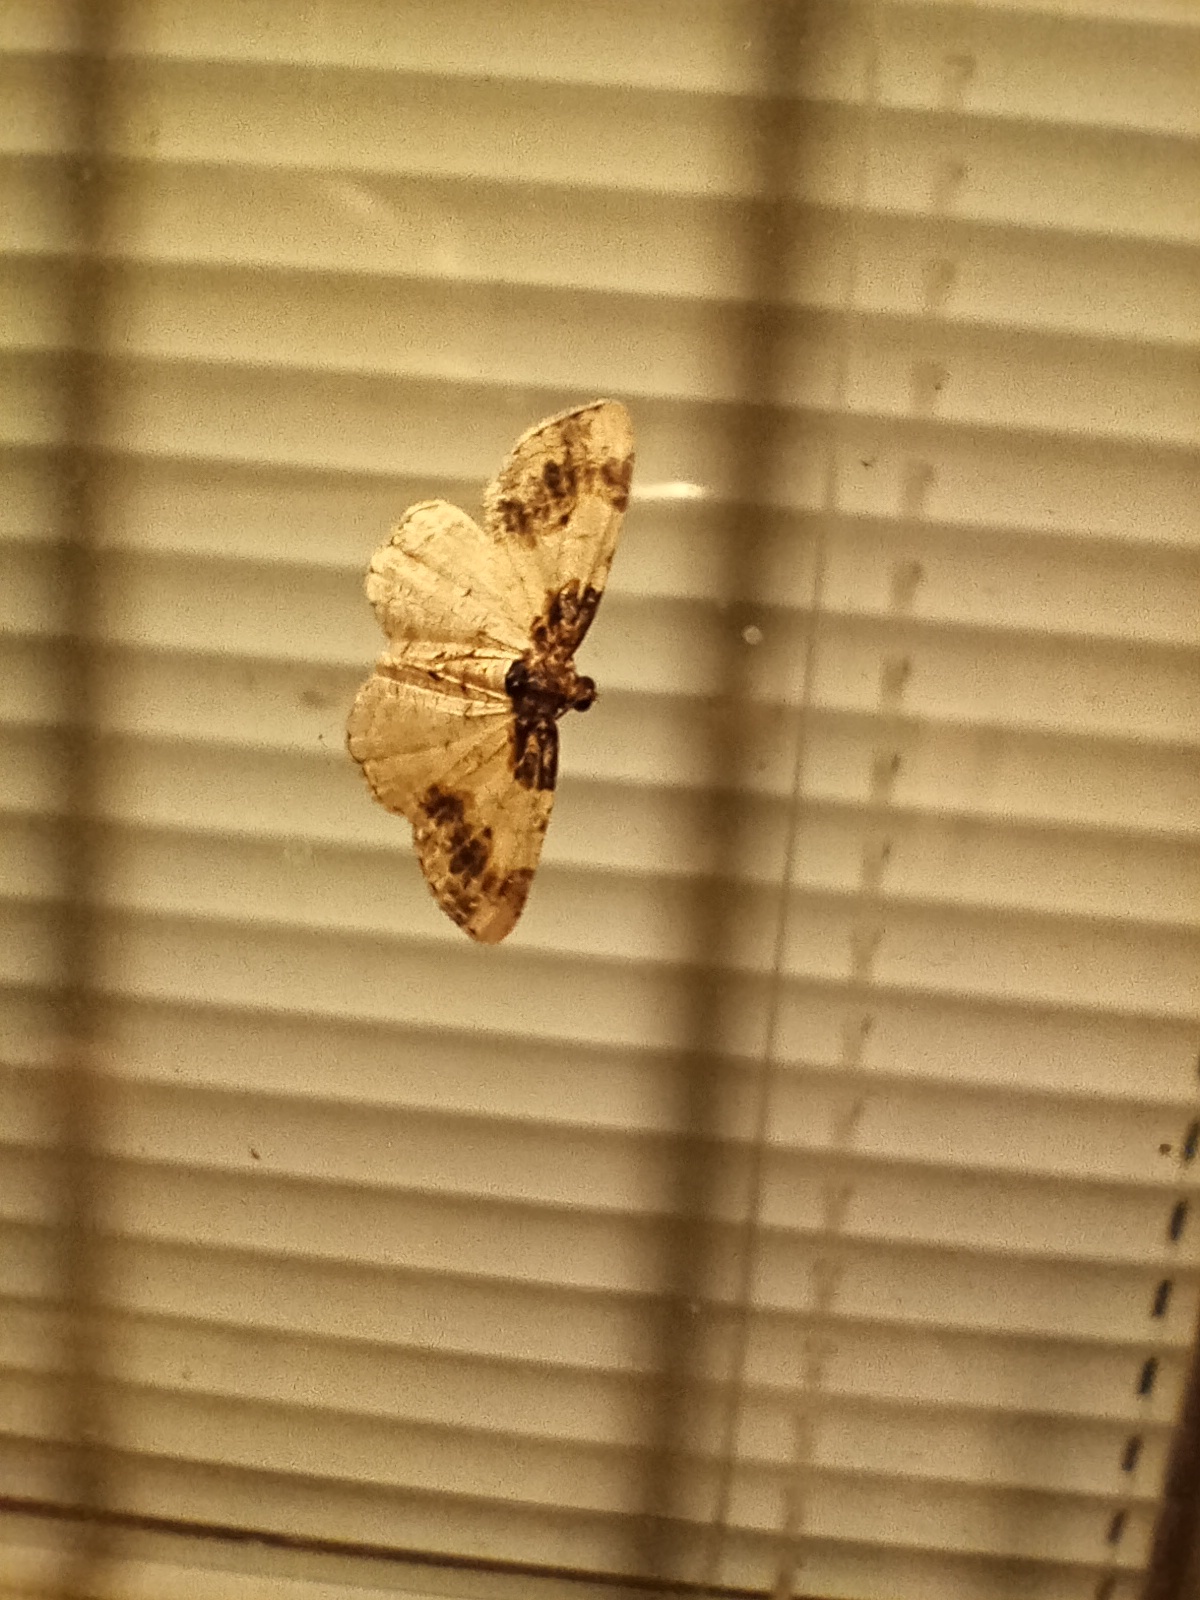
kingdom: Animalia
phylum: Arthropoda
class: Insecta
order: Lepidoptera
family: Geometridae
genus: Ligdia
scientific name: Ligdia adustata
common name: Scorched carpet
